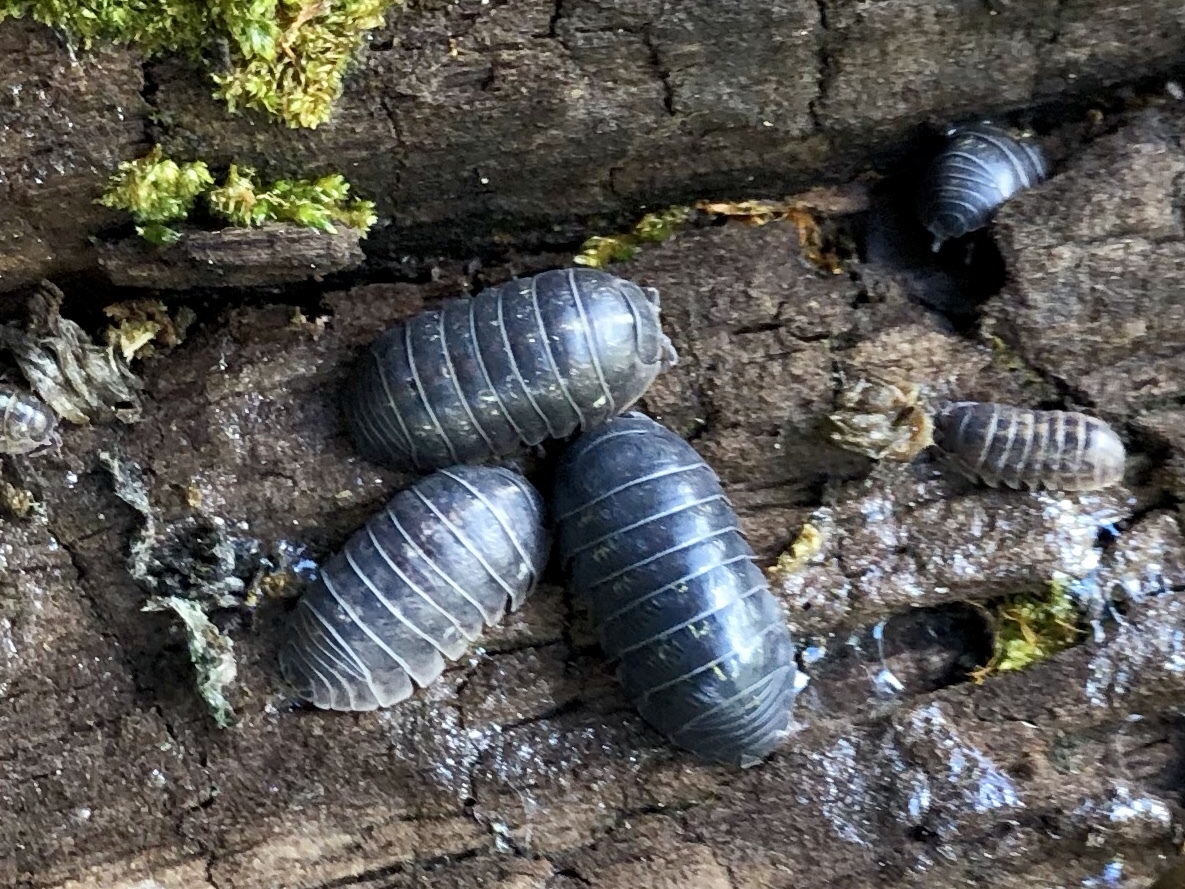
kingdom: Animalia
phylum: Arthropoda
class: Malacostraca
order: Isopoda
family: Armadillidiidae
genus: Armadillidium
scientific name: Armadillidium vulgare
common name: Common pill woodlouse
